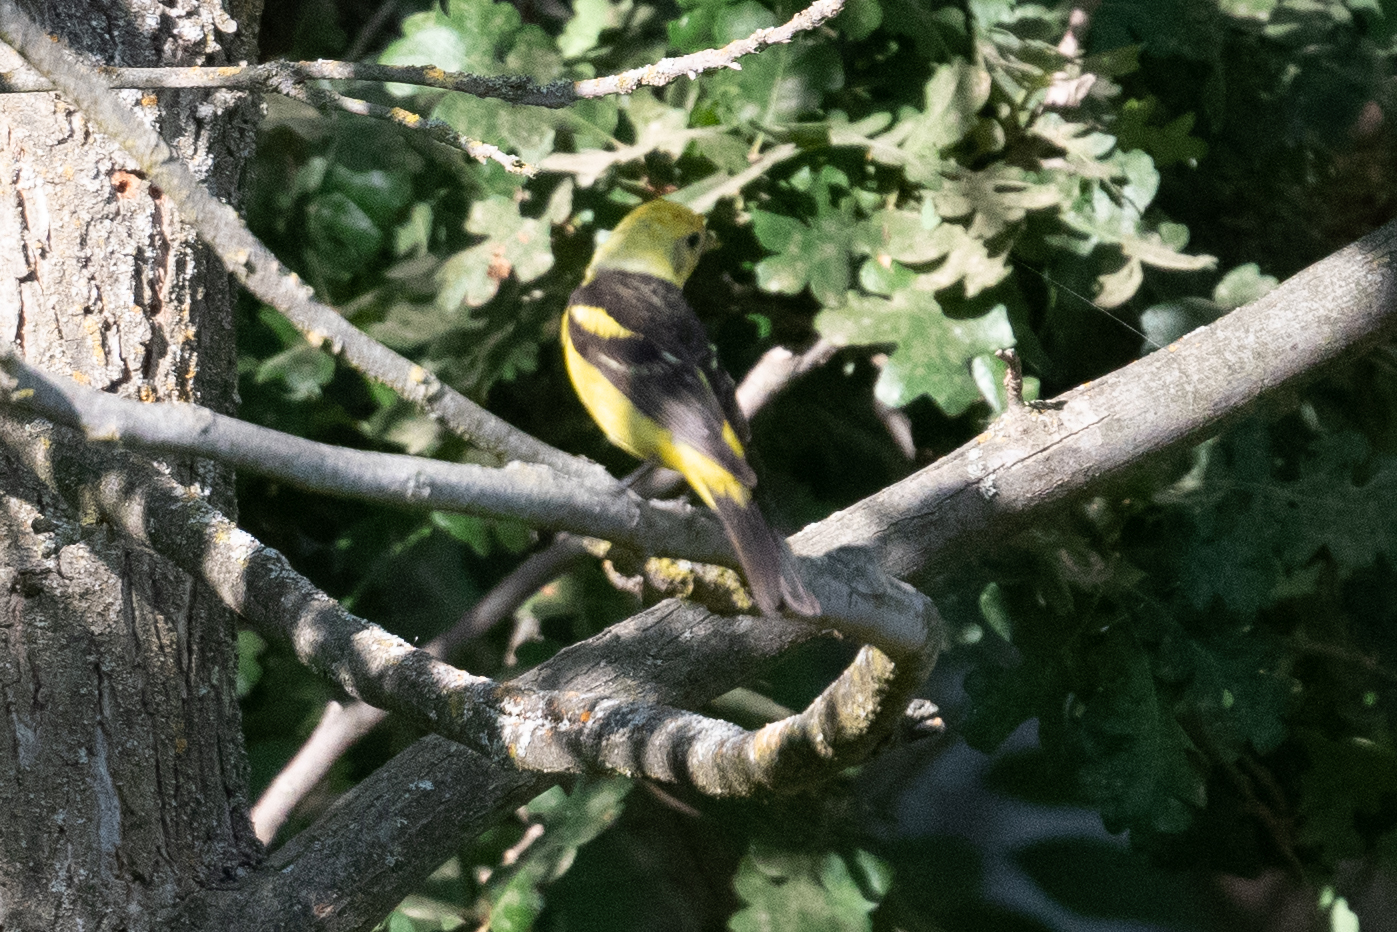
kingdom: Animalia
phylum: Chordata
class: Aves
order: Passeriformes
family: Cardinalidae
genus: Piranga
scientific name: Piranga ludoviciana
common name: Western tanager
